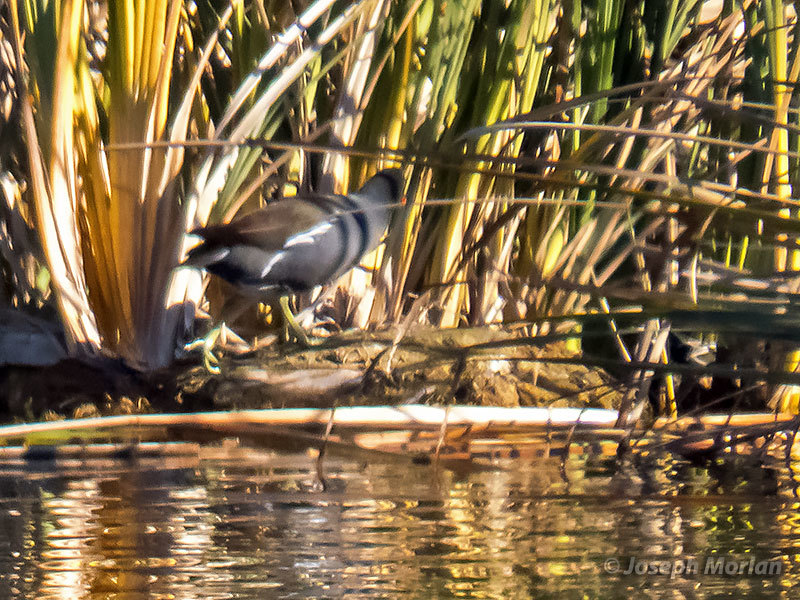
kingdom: Animalia
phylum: Chordata
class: Aves
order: Gruiformes
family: Rallidae
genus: Gallinula
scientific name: Gallinula chloropus
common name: Common moorhen
